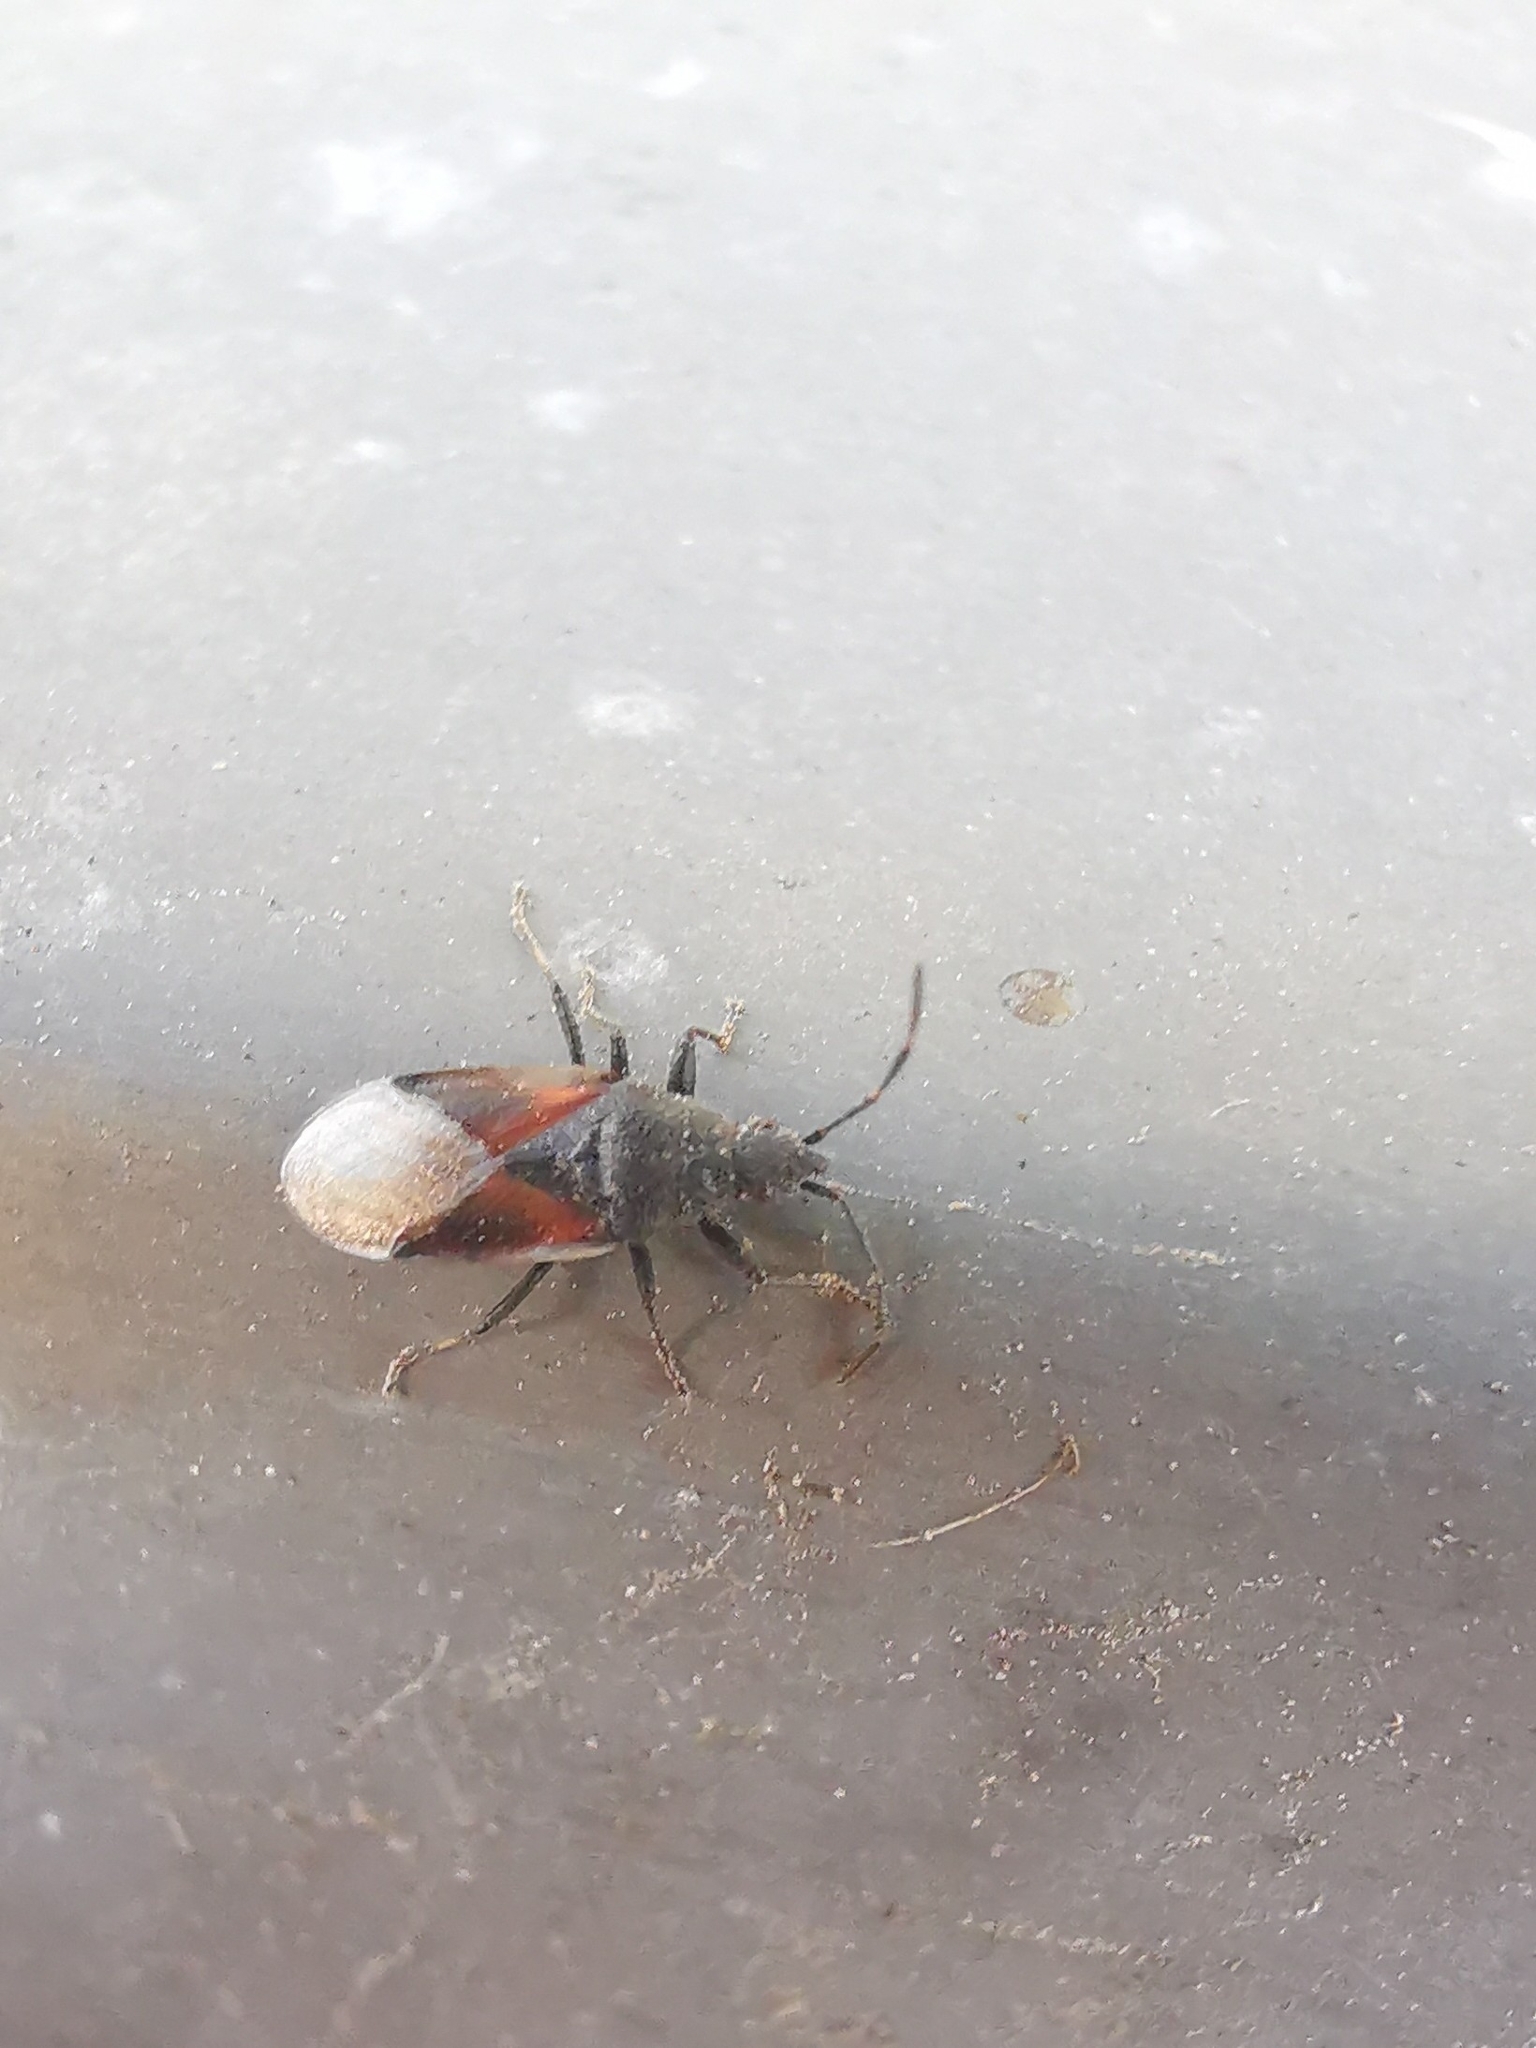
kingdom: Animalia
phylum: Arthropoda
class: Insecta
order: Hemiptera
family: Oxycarenidae
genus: Oxycarenus
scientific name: Oxycarenus lavaterae
